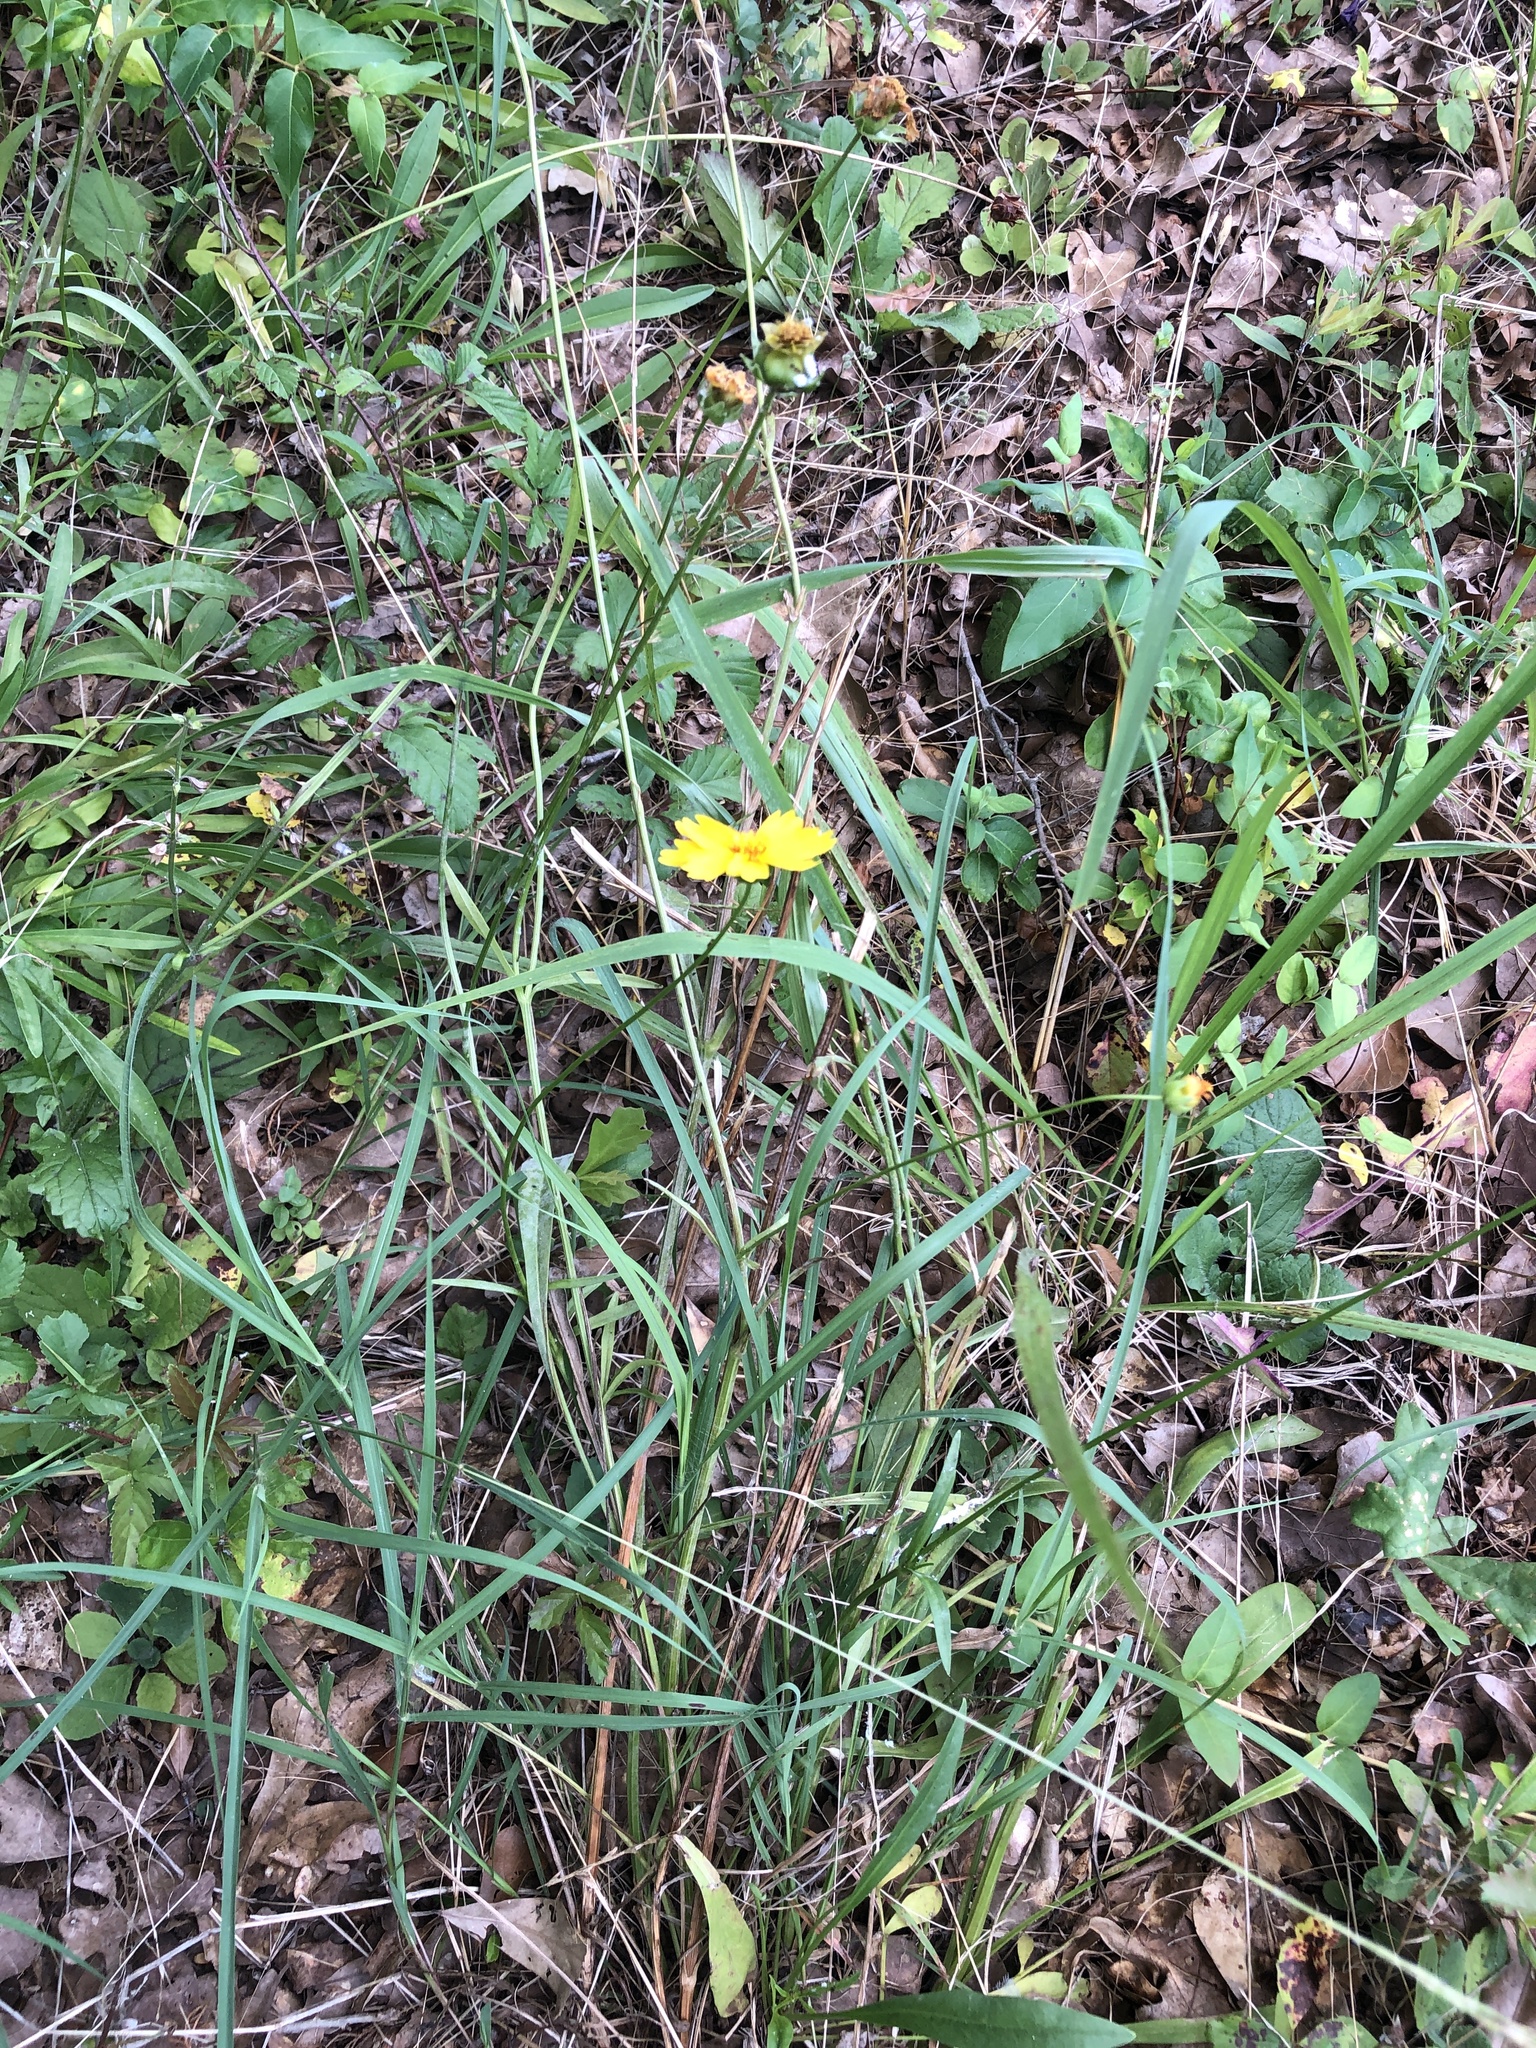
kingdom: Plantae
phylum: Tracheophyta
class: Magnoliopsida
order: Asterales
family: Asteraceae
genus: Coreopsis
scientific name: Coreopsis lanceolata
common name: Garden coreopsis
